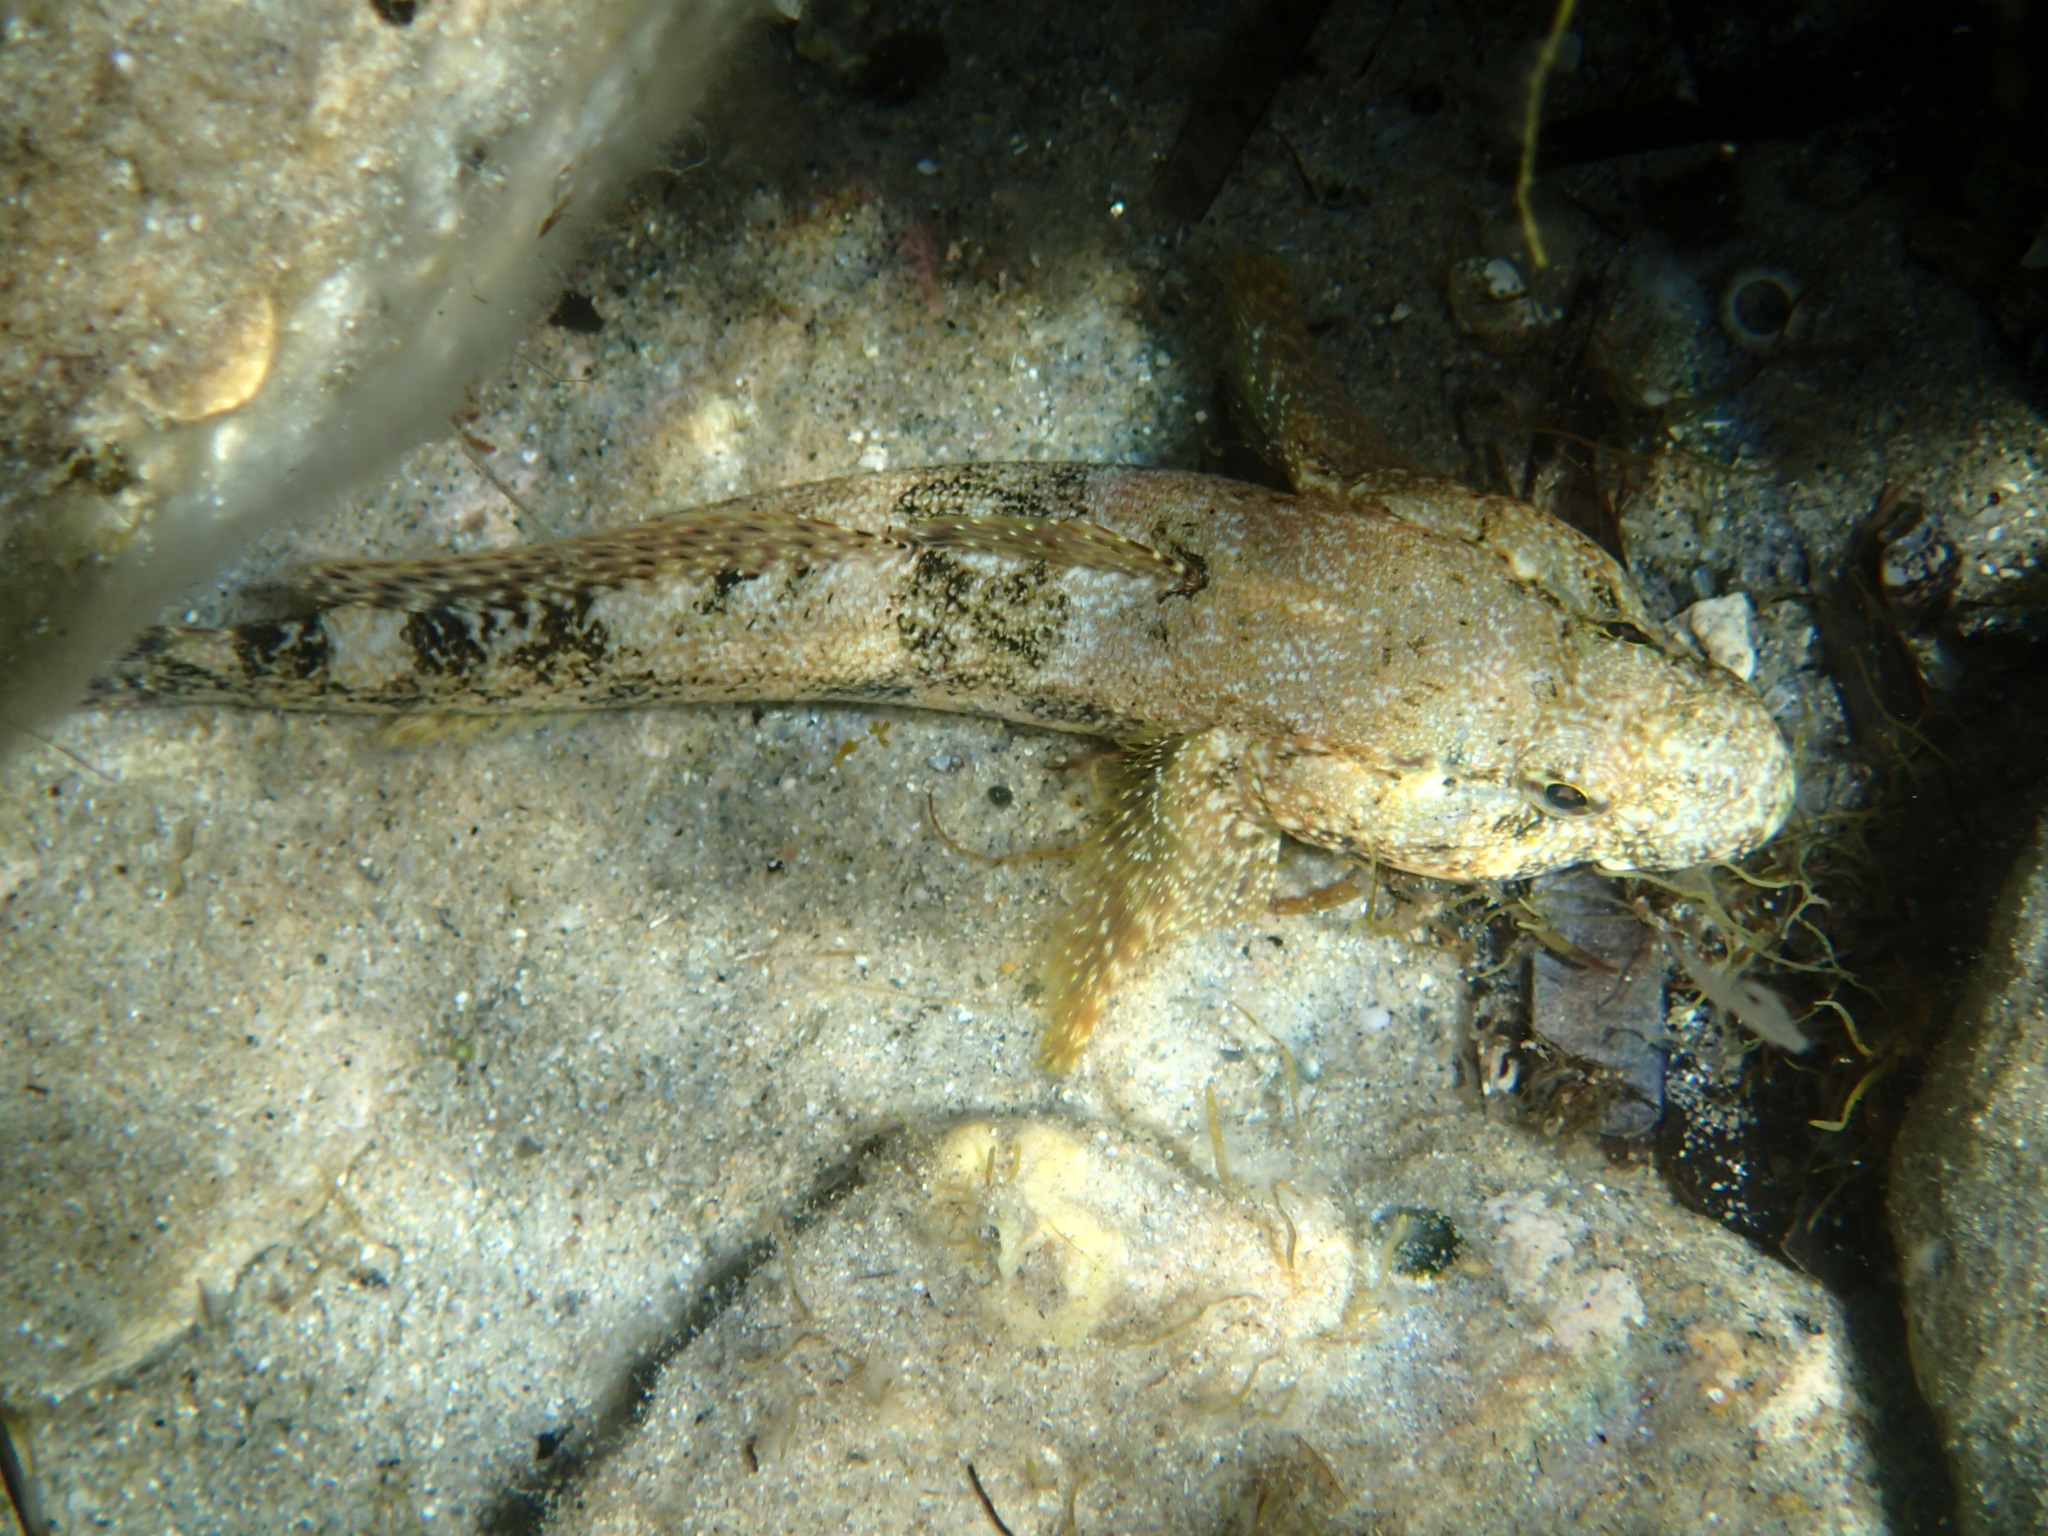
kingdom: Animalia
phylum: Chordata
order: Perciformes
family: Gobiidae
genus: Gobius
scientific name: Gobius cobitis
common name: Giant goby
